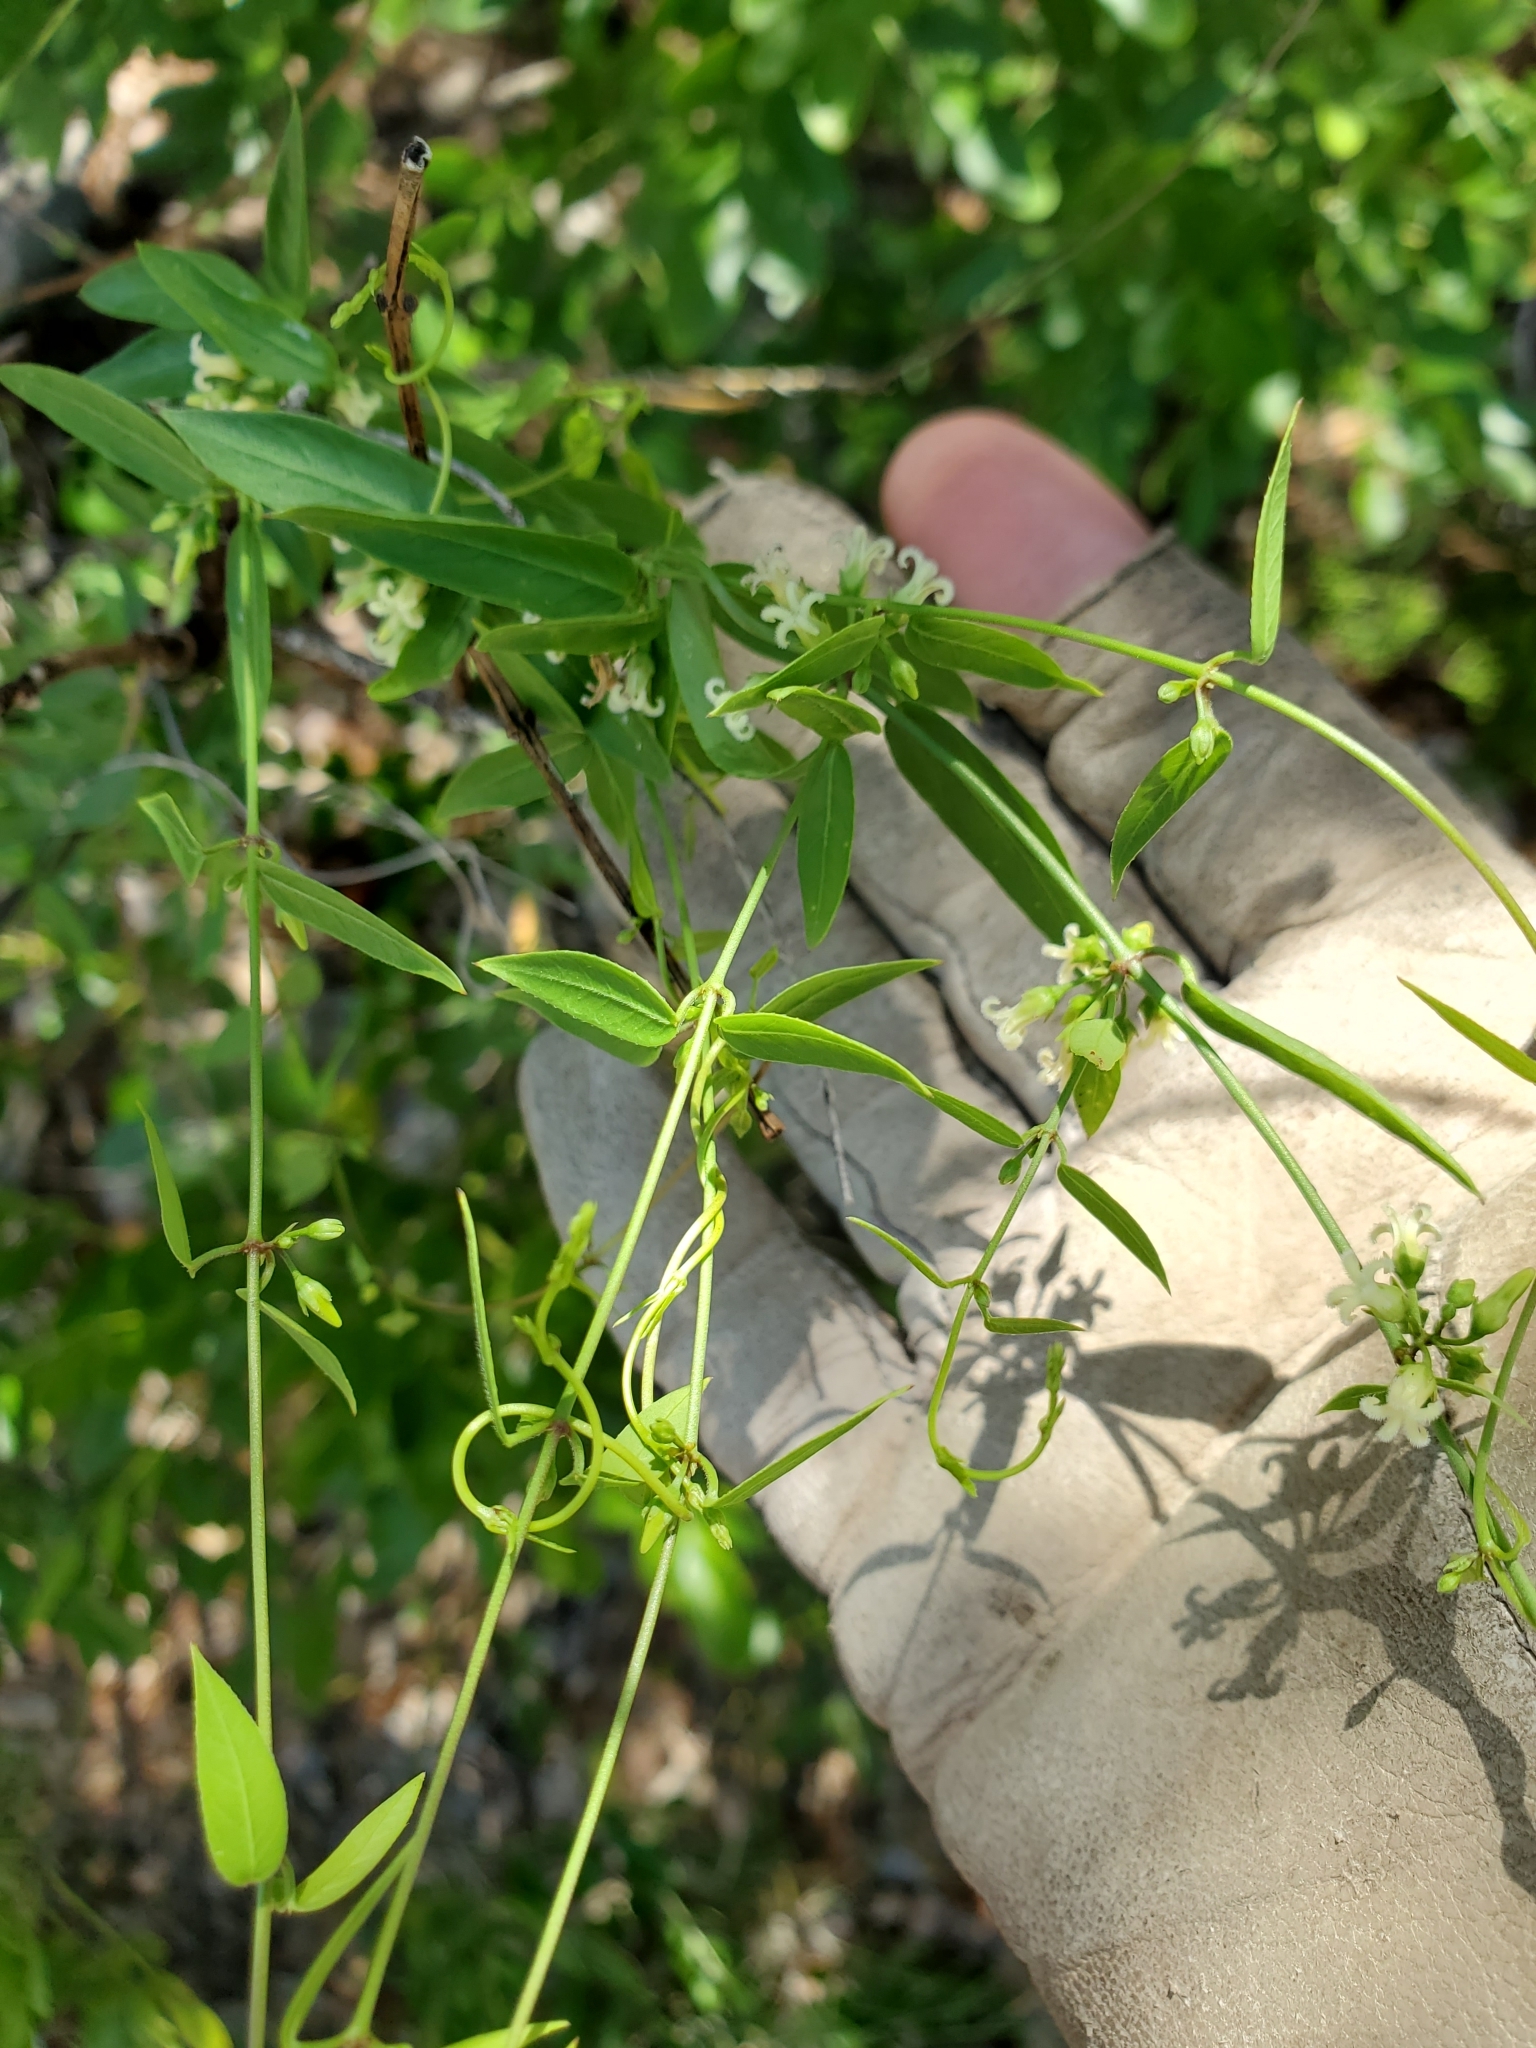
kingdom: Plantae
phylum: Tracheophyta
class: Magnoliopsida
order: Gentianales
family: Apocynaceae
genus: Metastelma
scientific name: Metastelma barbigerum
